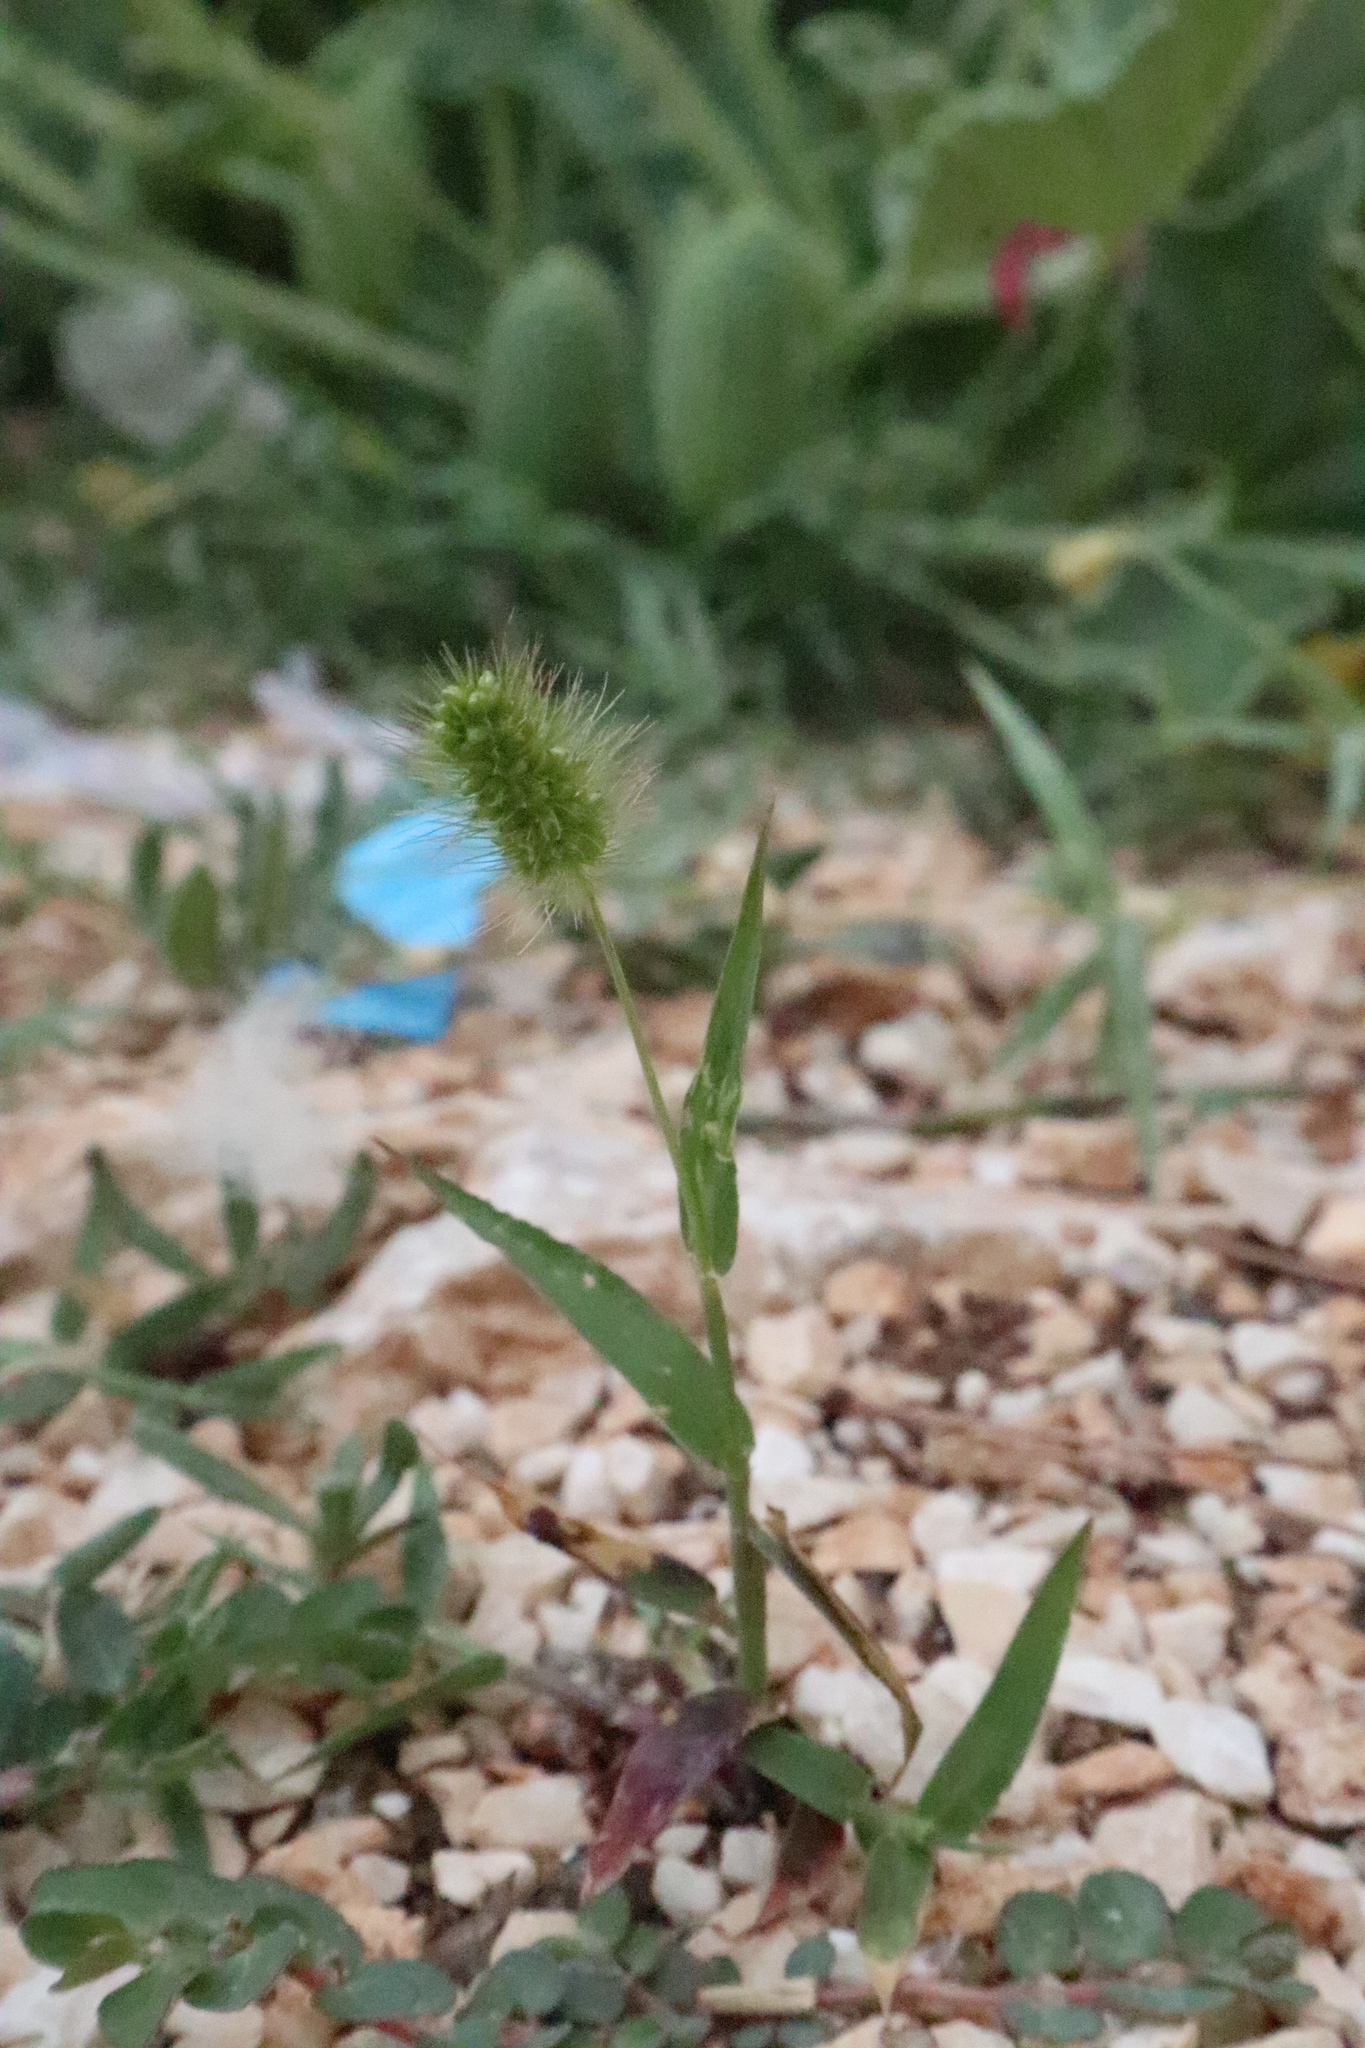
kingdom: Plantae
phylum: Tracheophyta
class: Liliopsida
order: Poales
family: Poaceae
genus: Setaria
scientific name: Setaria viridis
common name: Green bristlegrass
